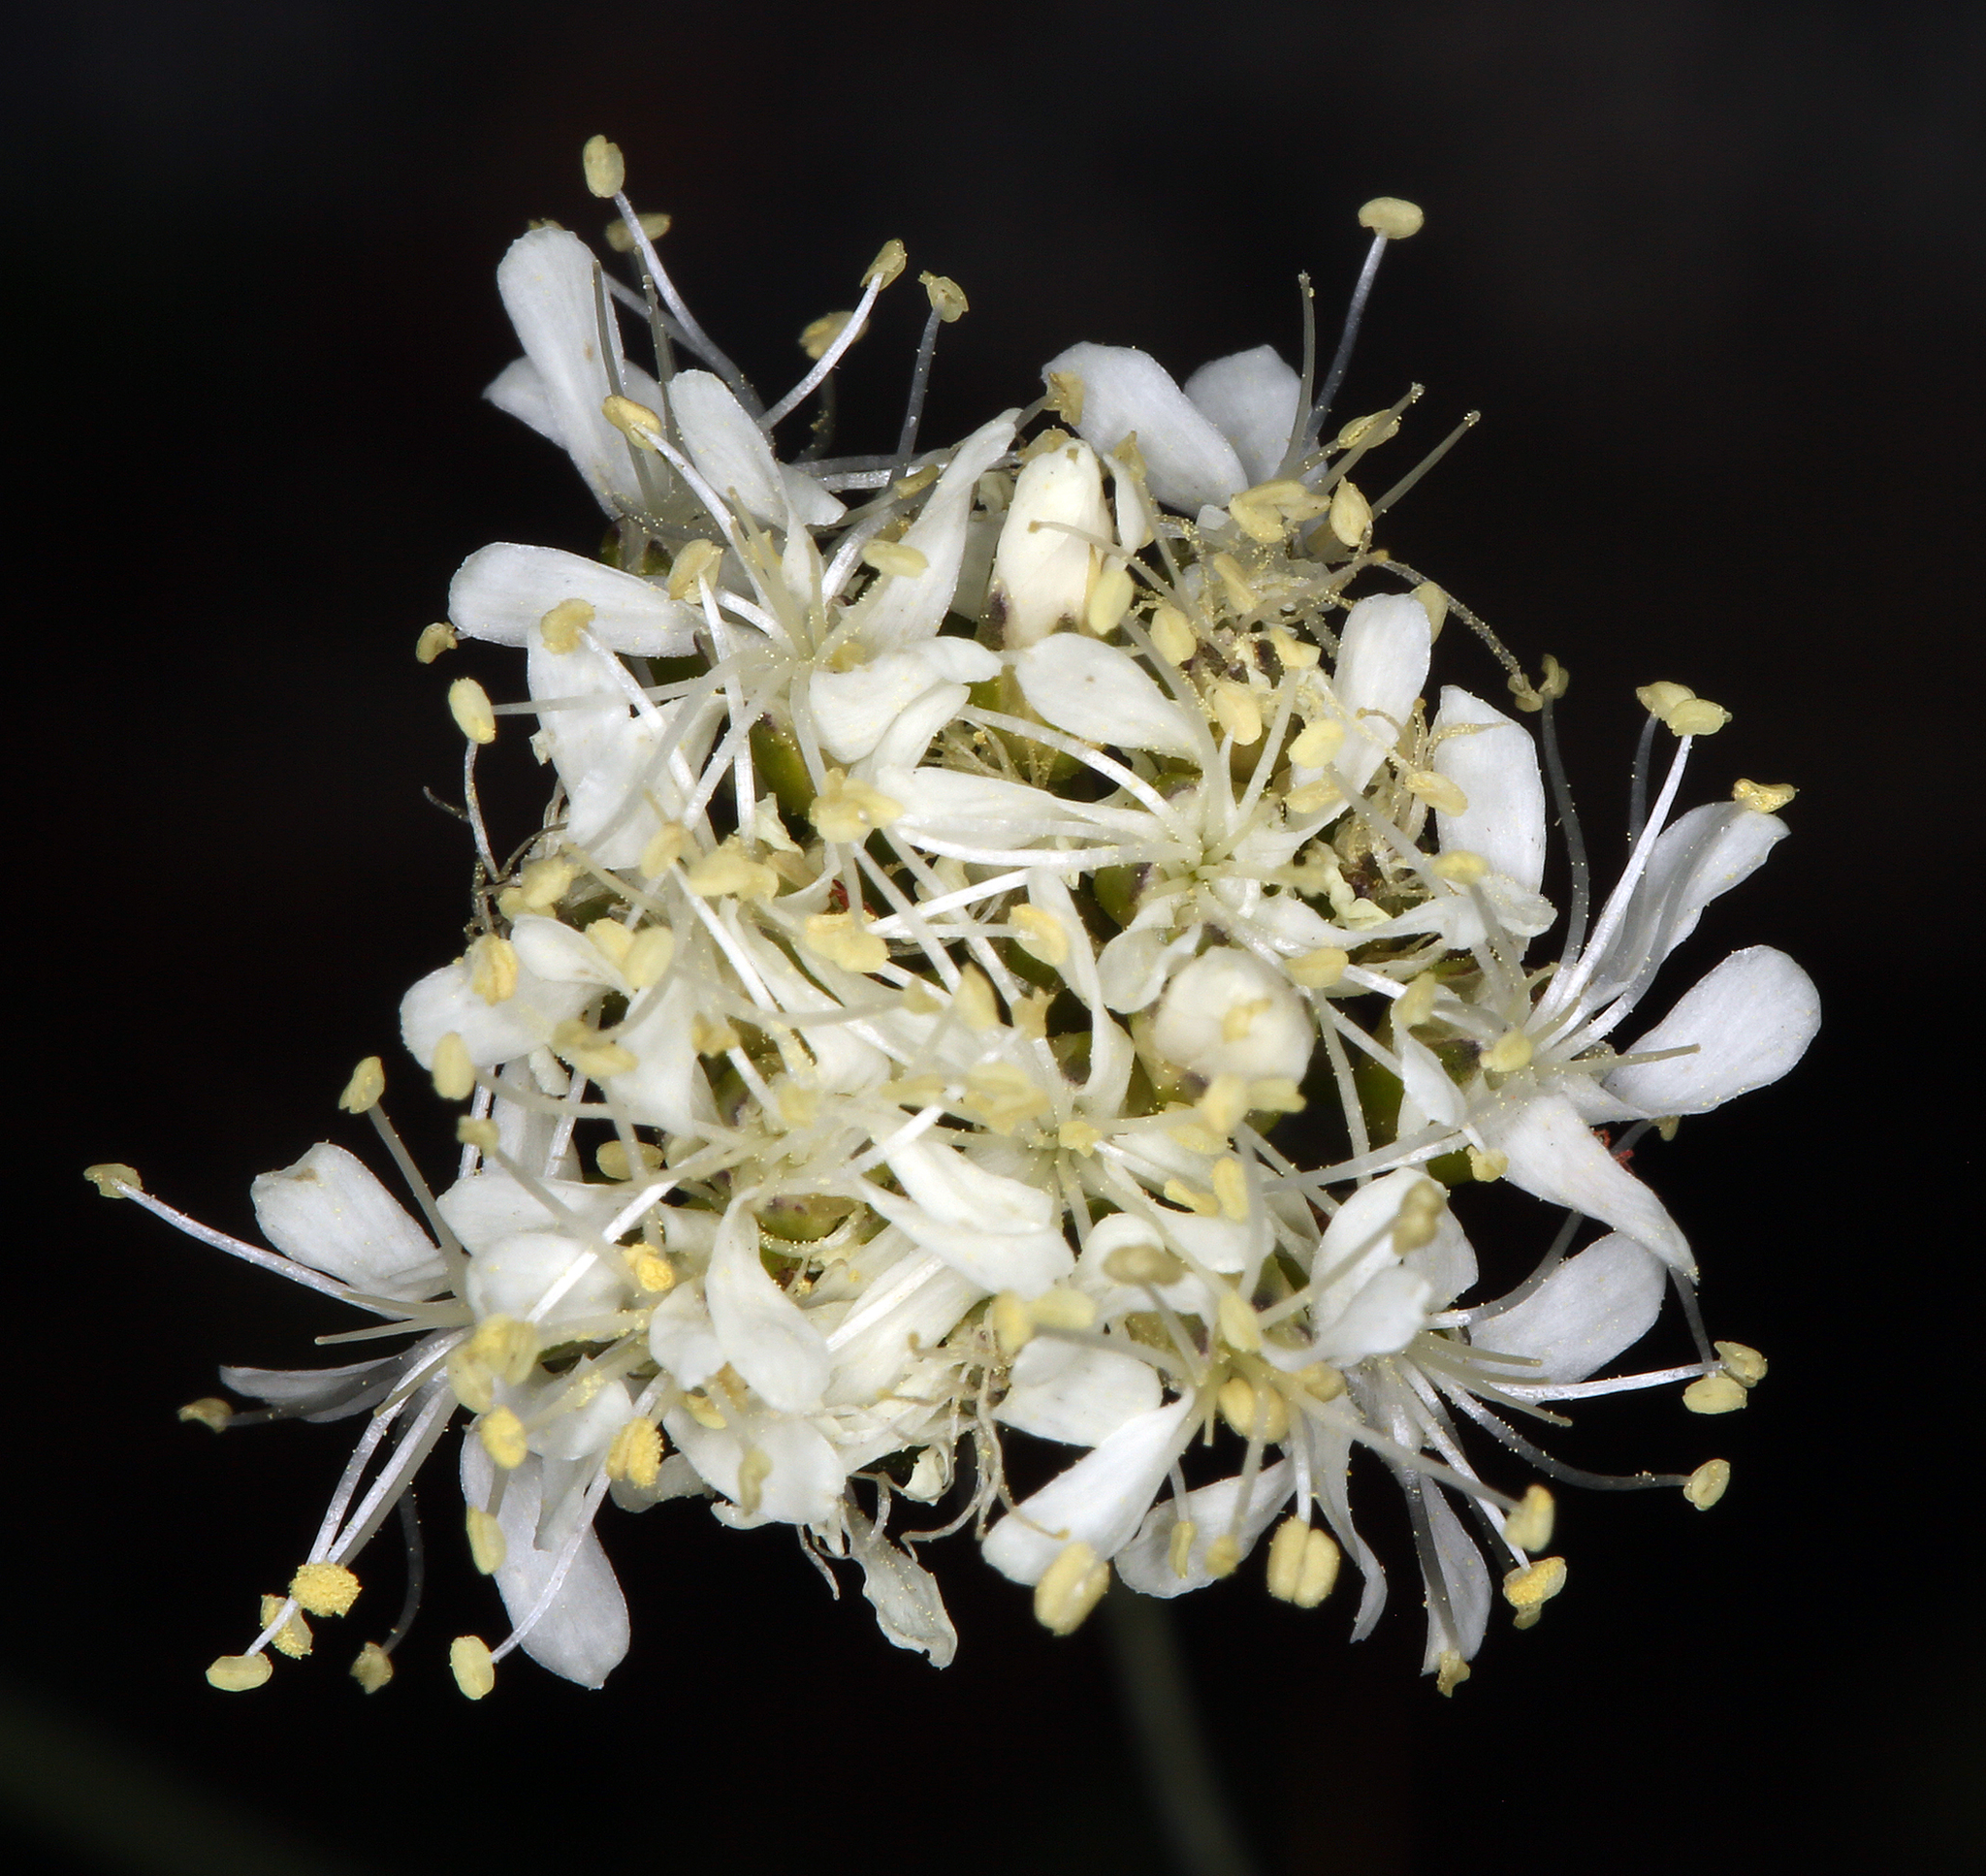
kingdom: Plantae
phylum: Tracheophyta
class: Magnoliopsida
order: Caryophyllales
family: Caryophyllaceae
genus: Eremogone
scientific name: Eremogone congesta
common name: Ballhead sandwort
